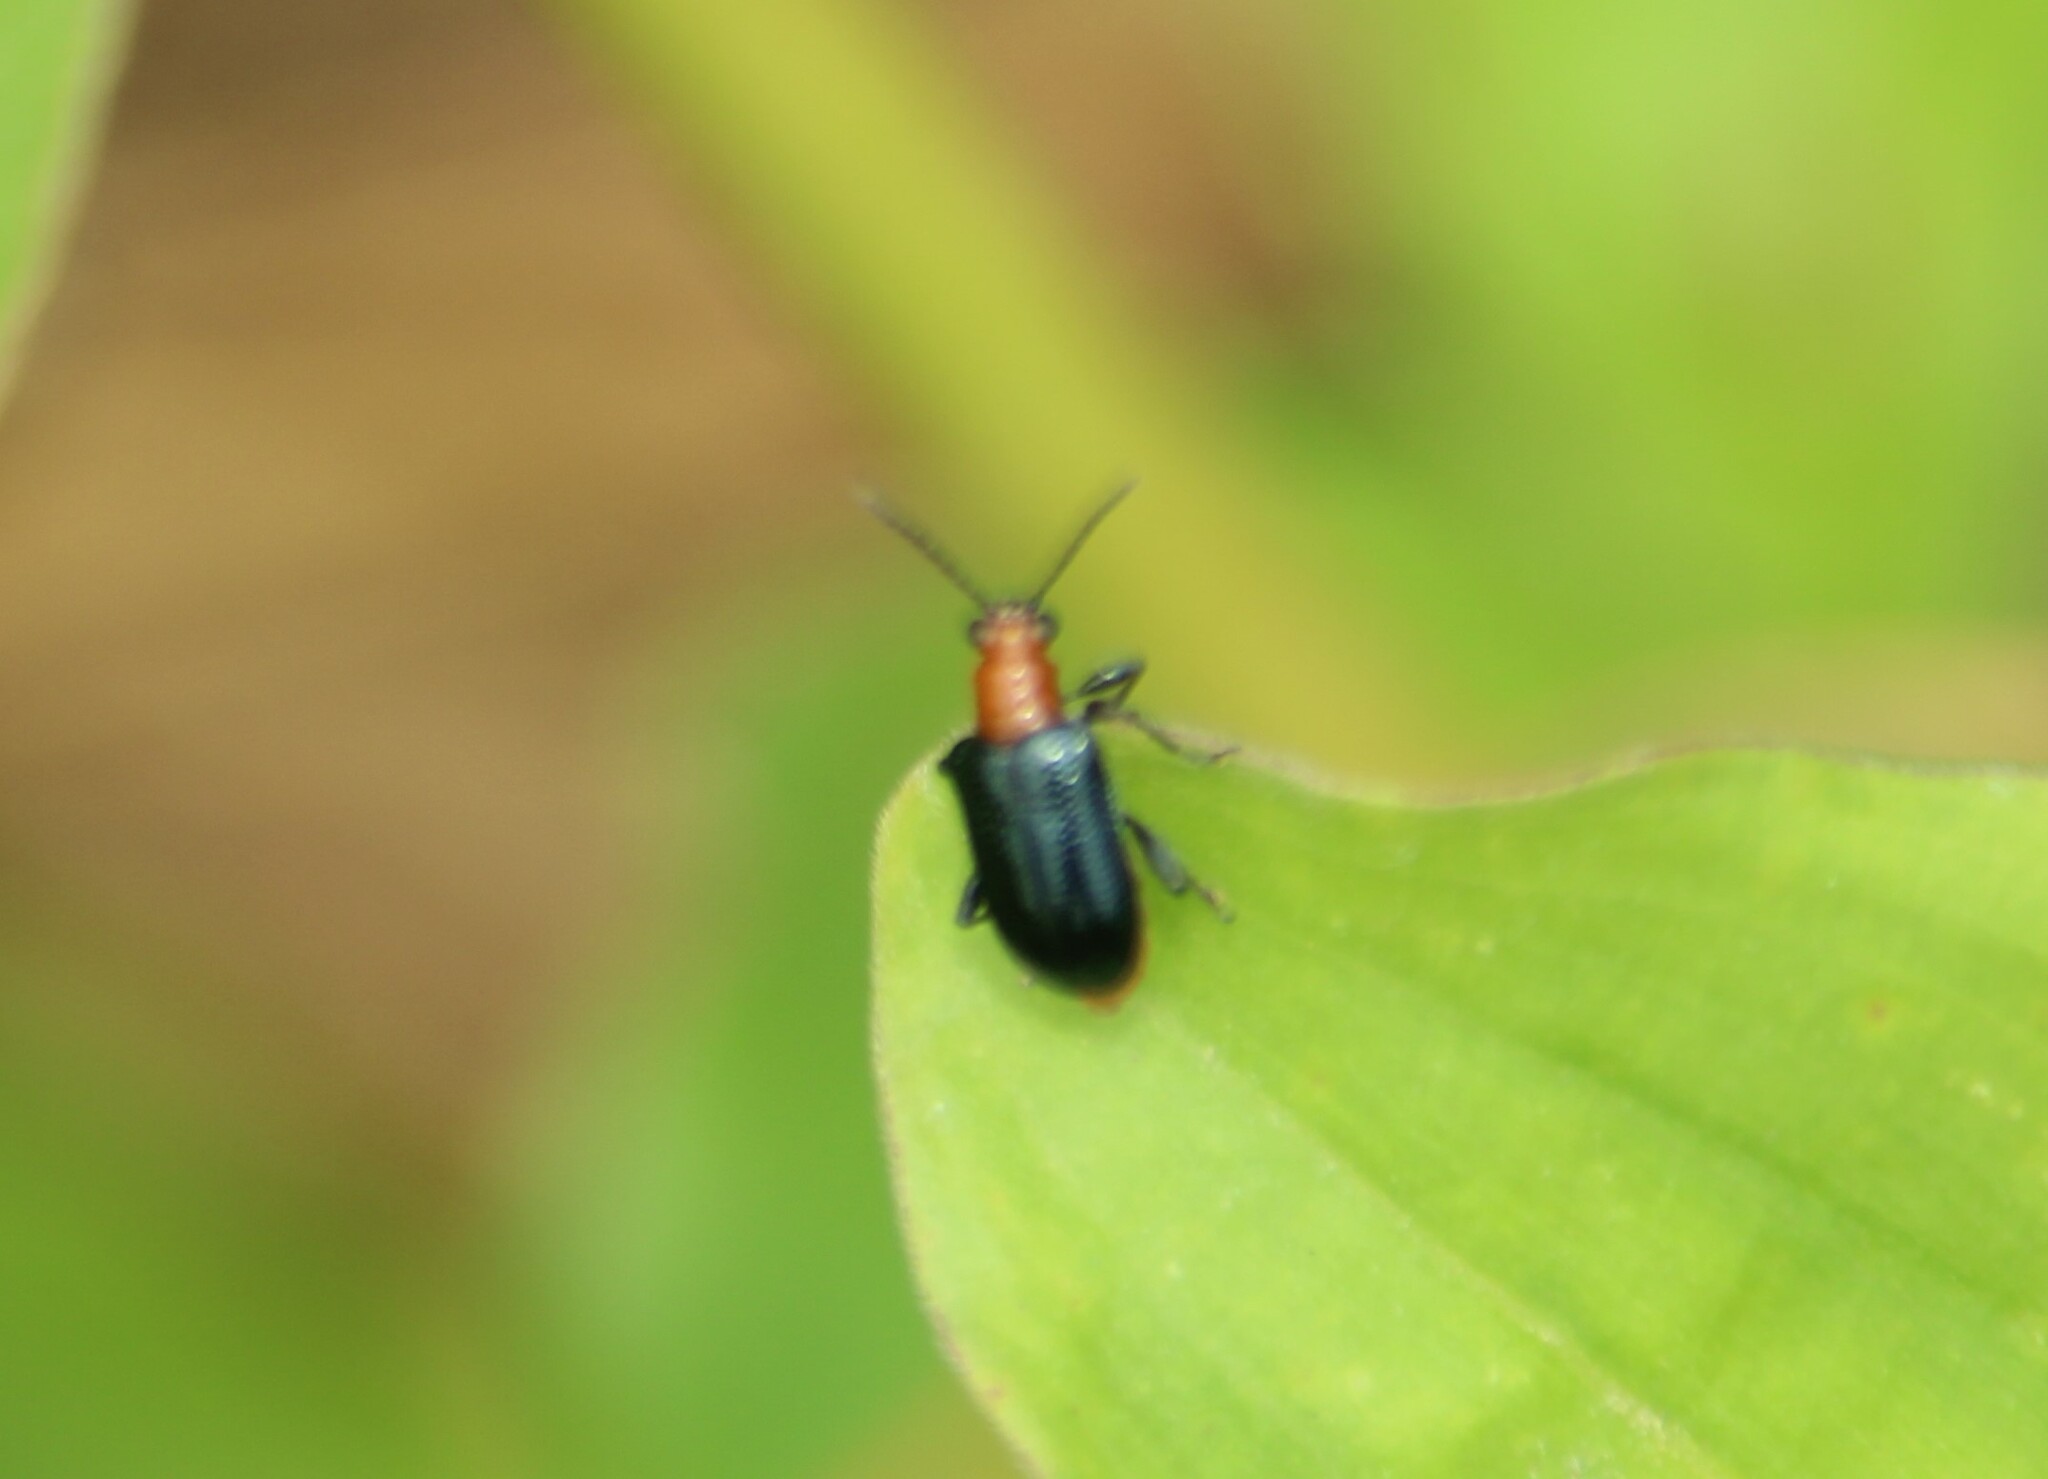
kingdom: Animalia
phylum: Arthropoda
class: Insecta
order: Coleoptera
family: Chrysomelidae
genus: Lema
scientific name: Lema praeusta
